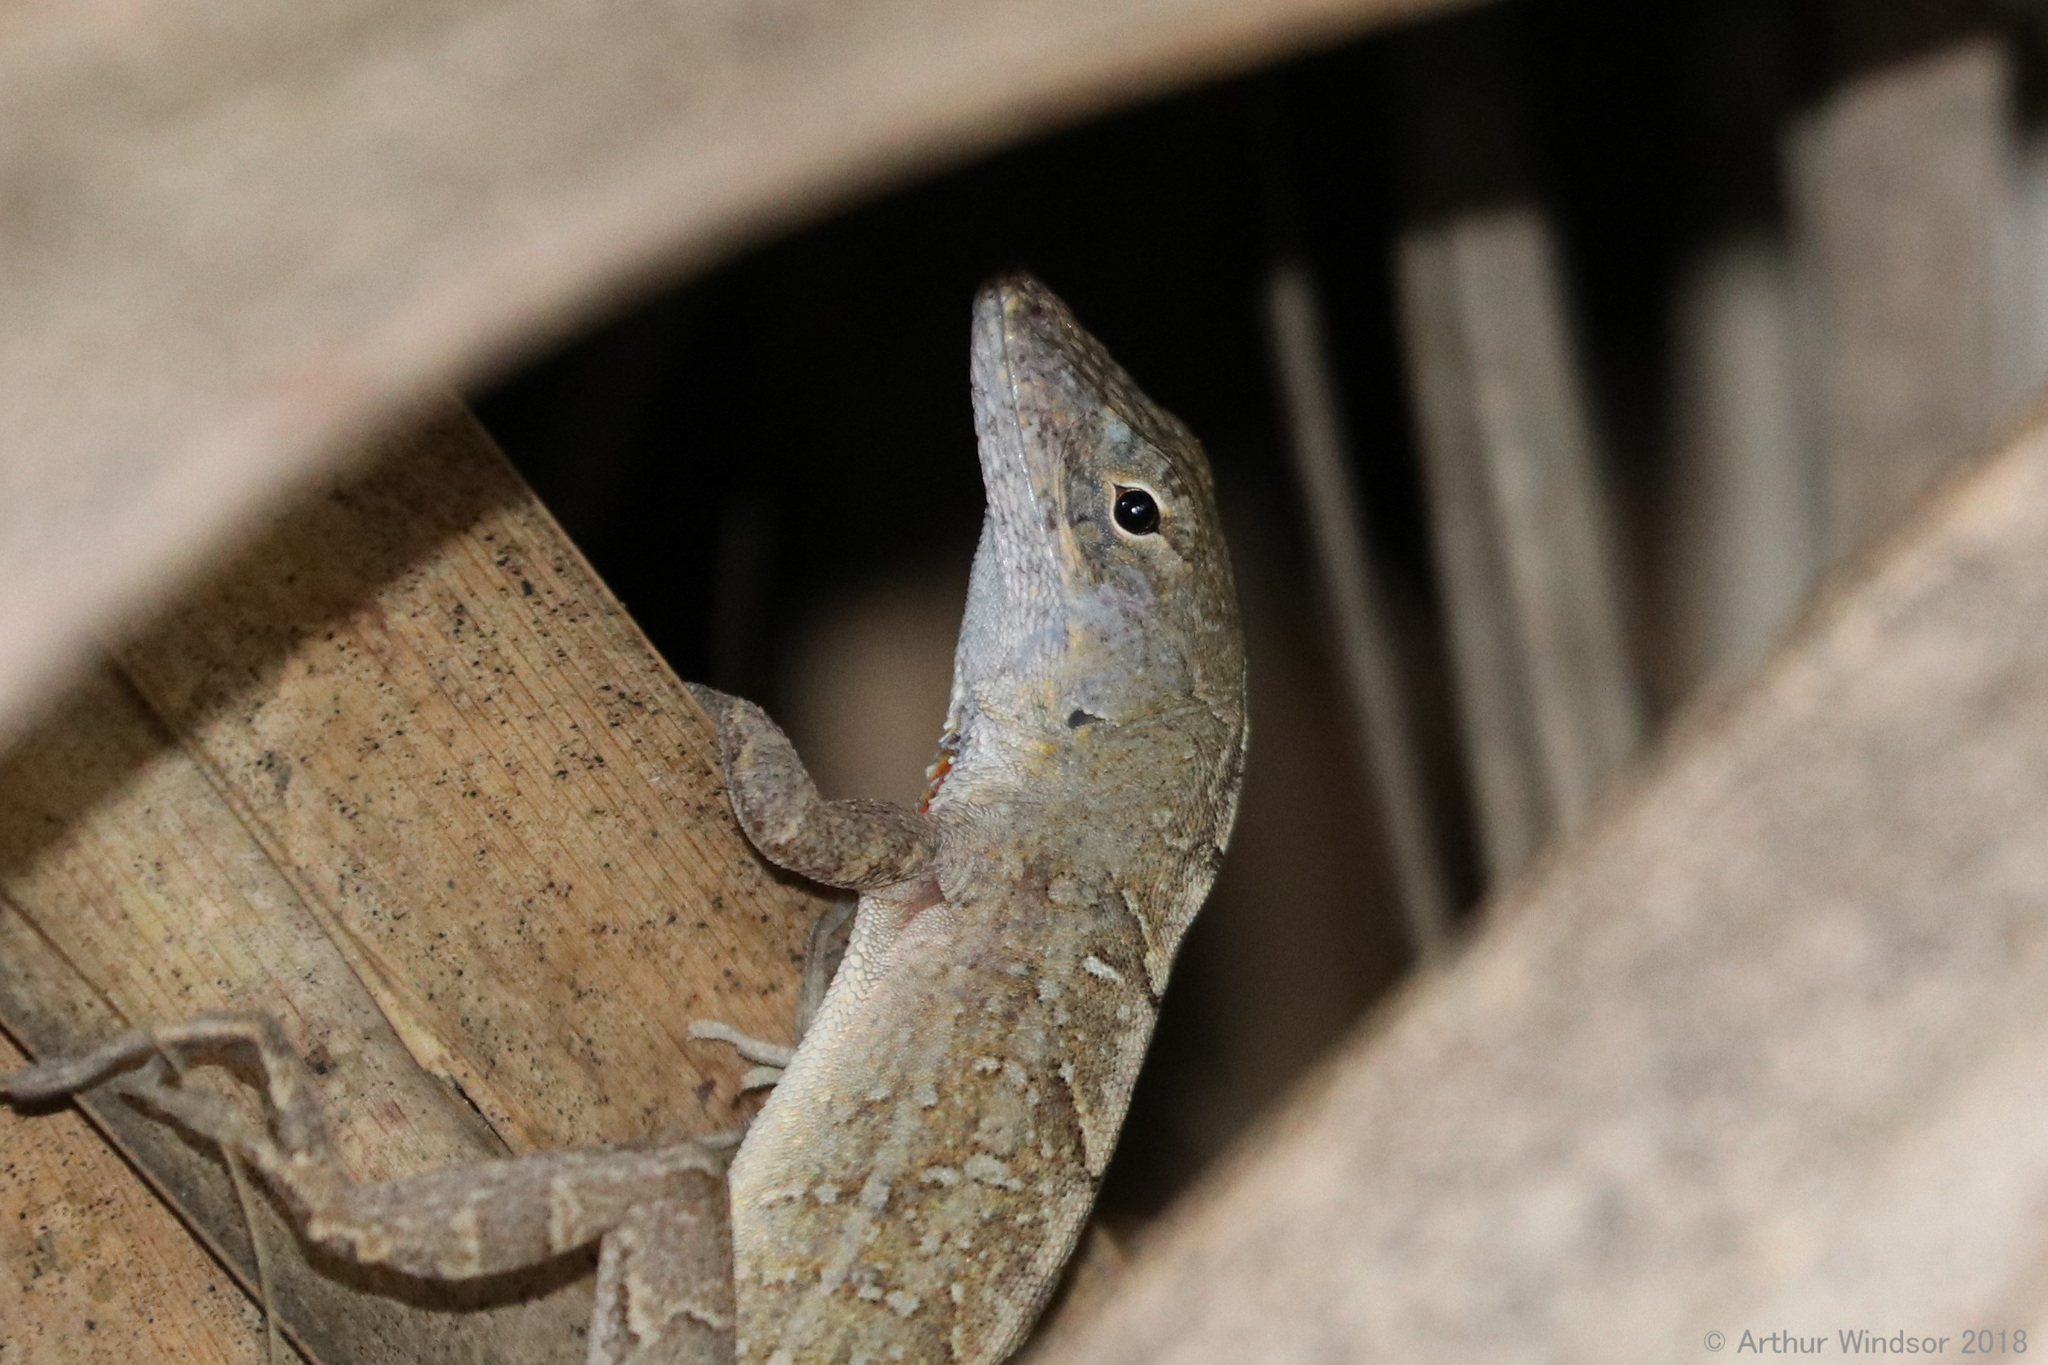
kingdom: Animalia
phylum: Chordata
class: Squamata
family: Dactyloidae
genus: Anolis
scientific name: Anolis sagrei
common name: Brown anole
